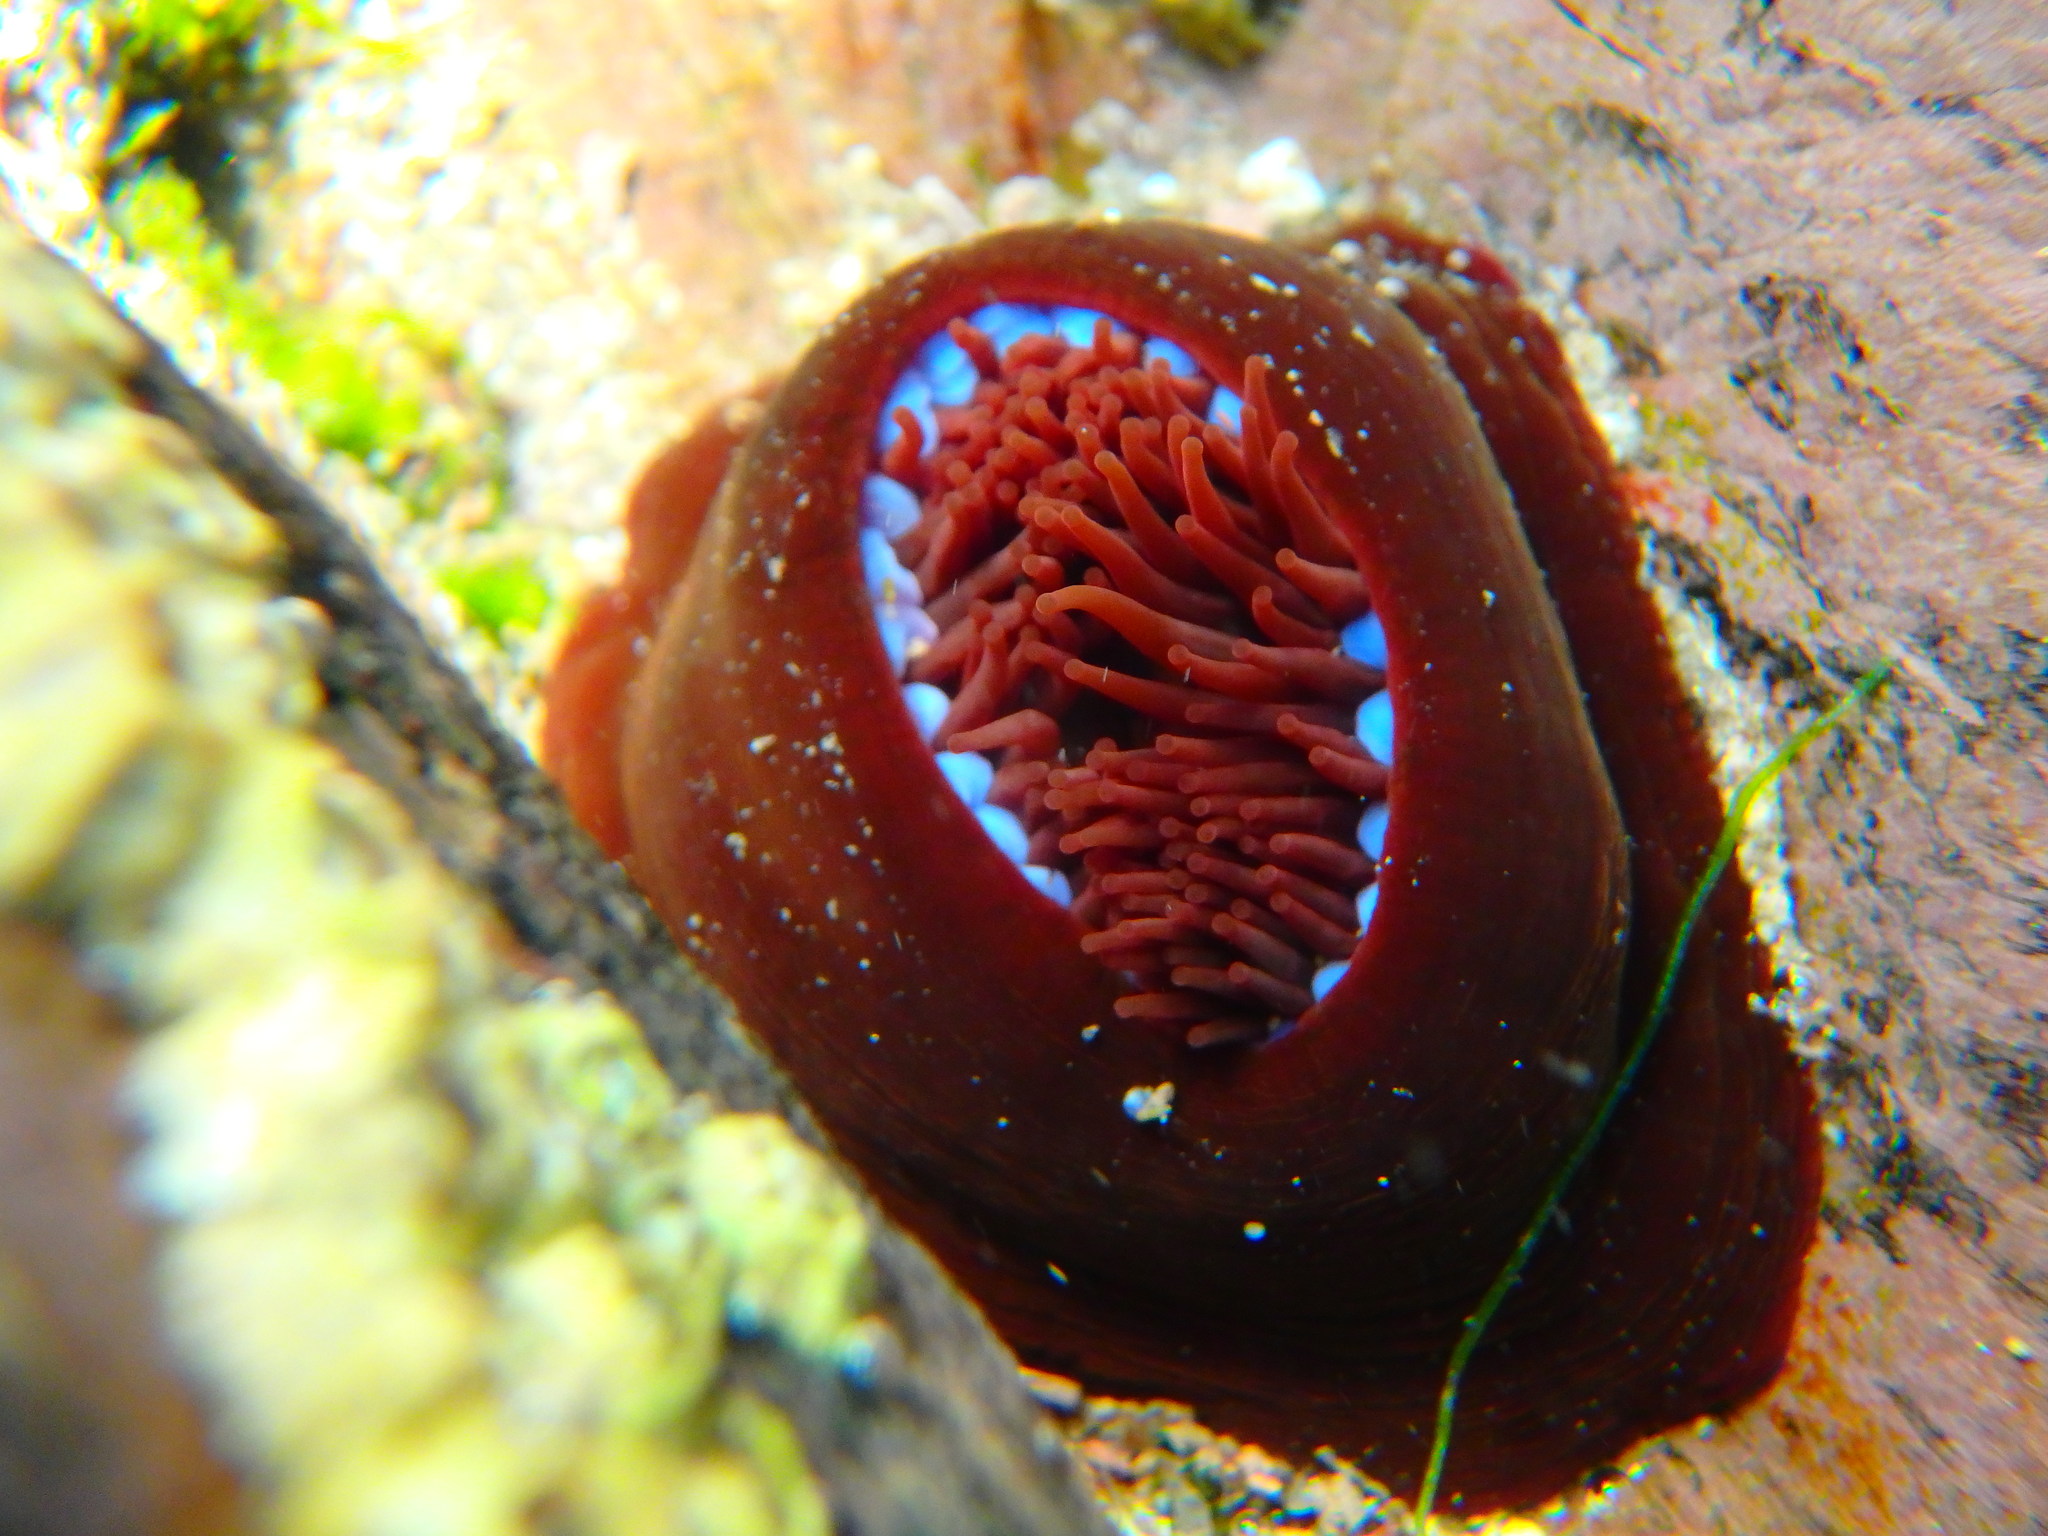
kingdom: Animalia
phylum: Cnidaria
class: Anthozoa
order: Actiniaria
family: Actiniidae
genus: Actinia
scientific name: Actinia equina
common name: Beadlet anemone
